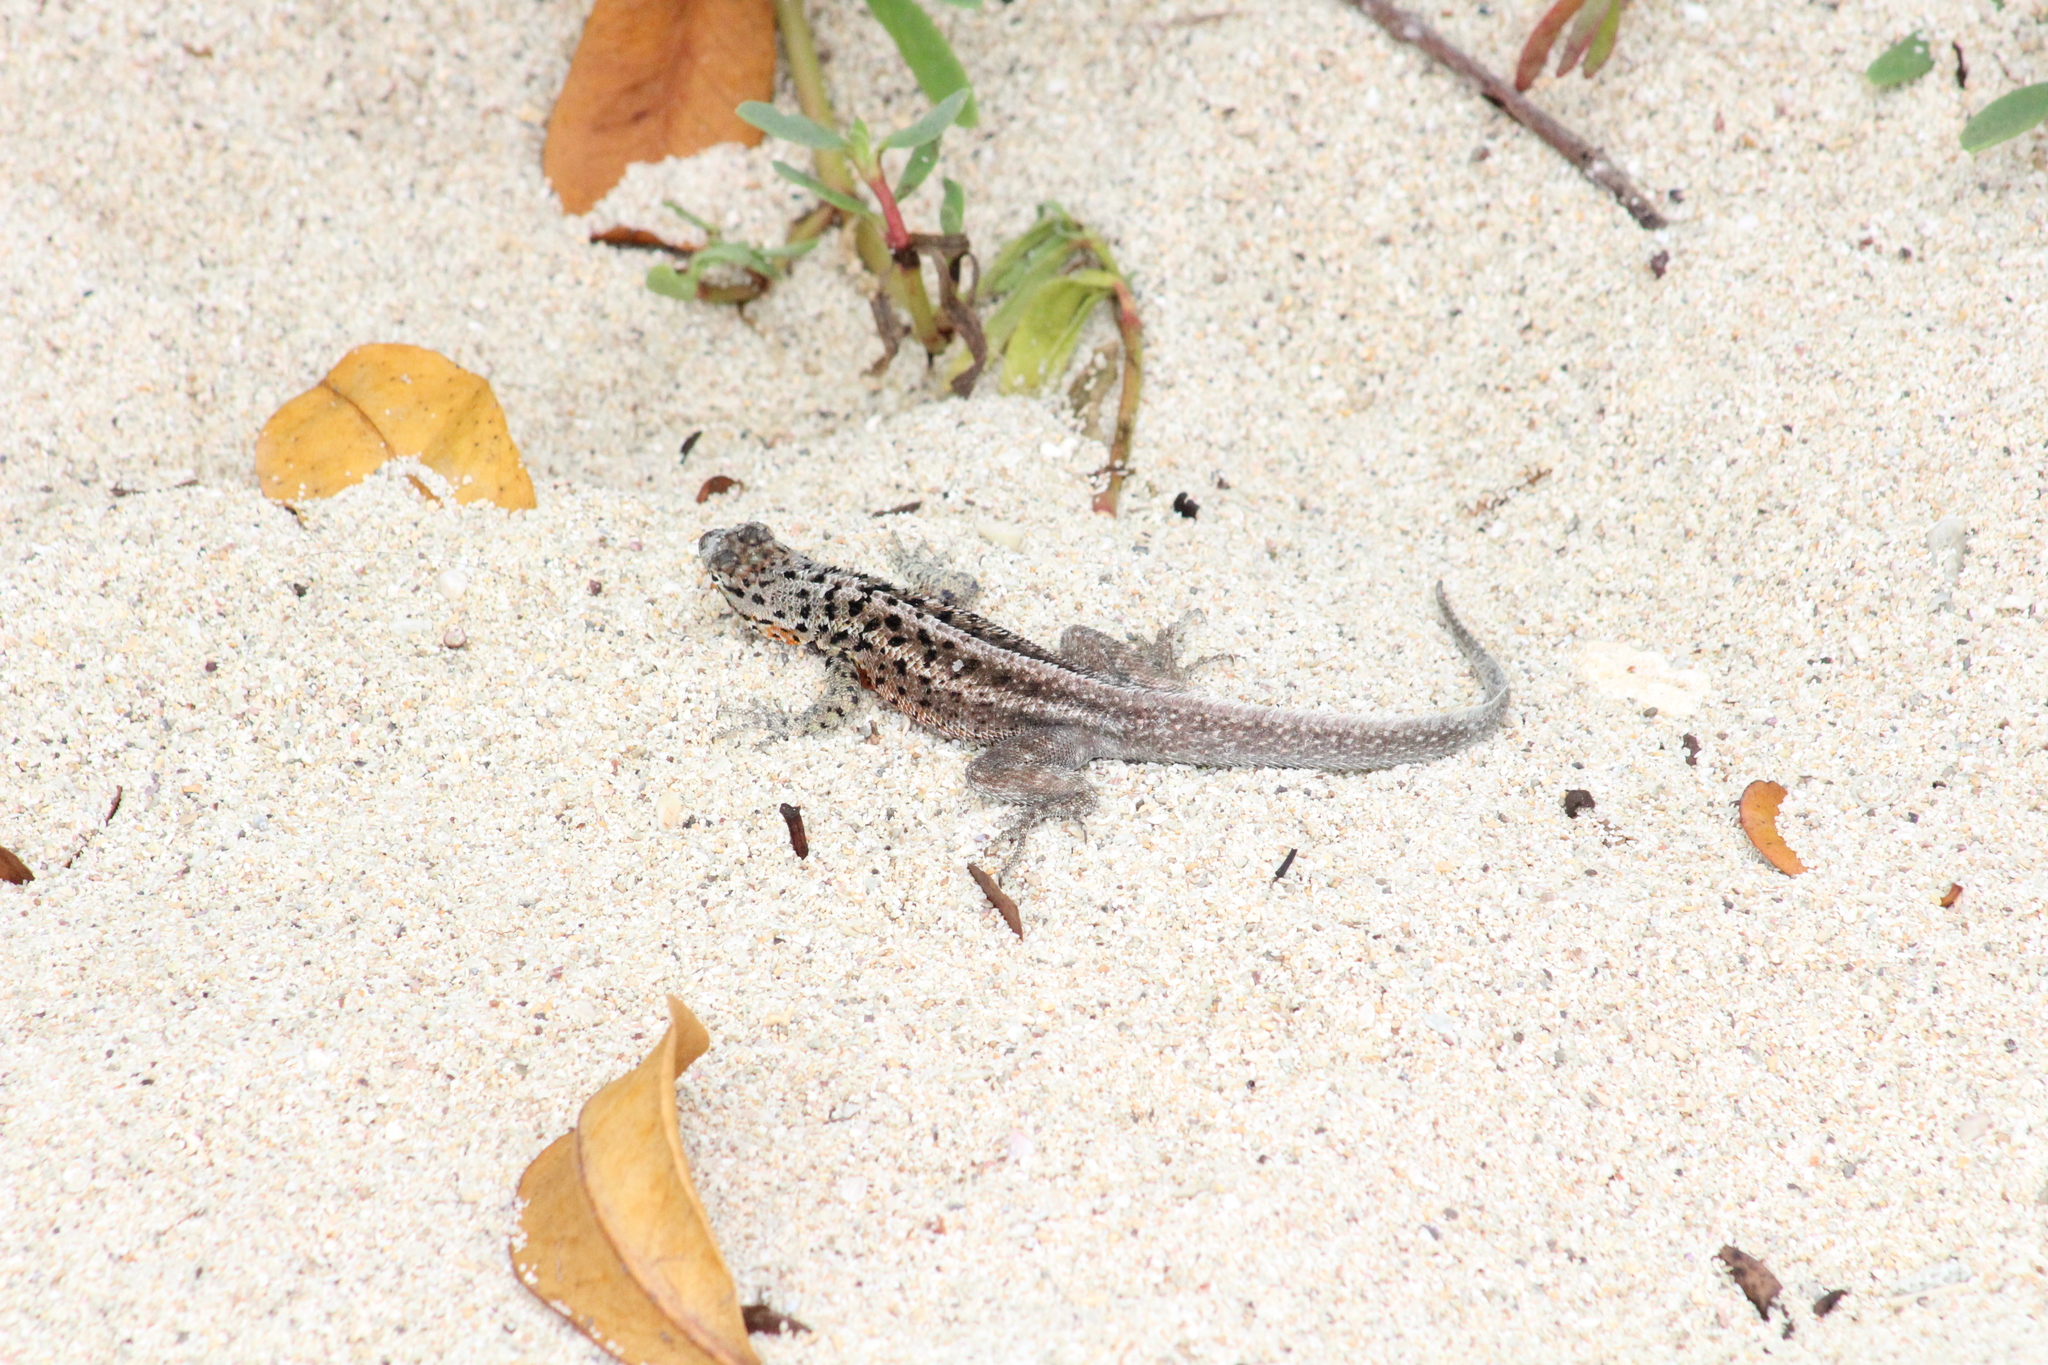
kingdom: Animalia
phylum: Chordata
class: Squamata
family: Tropiduridae
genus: Microlophus
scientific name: Microlophus indefatigabilis
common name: Galapagos lava lizard
